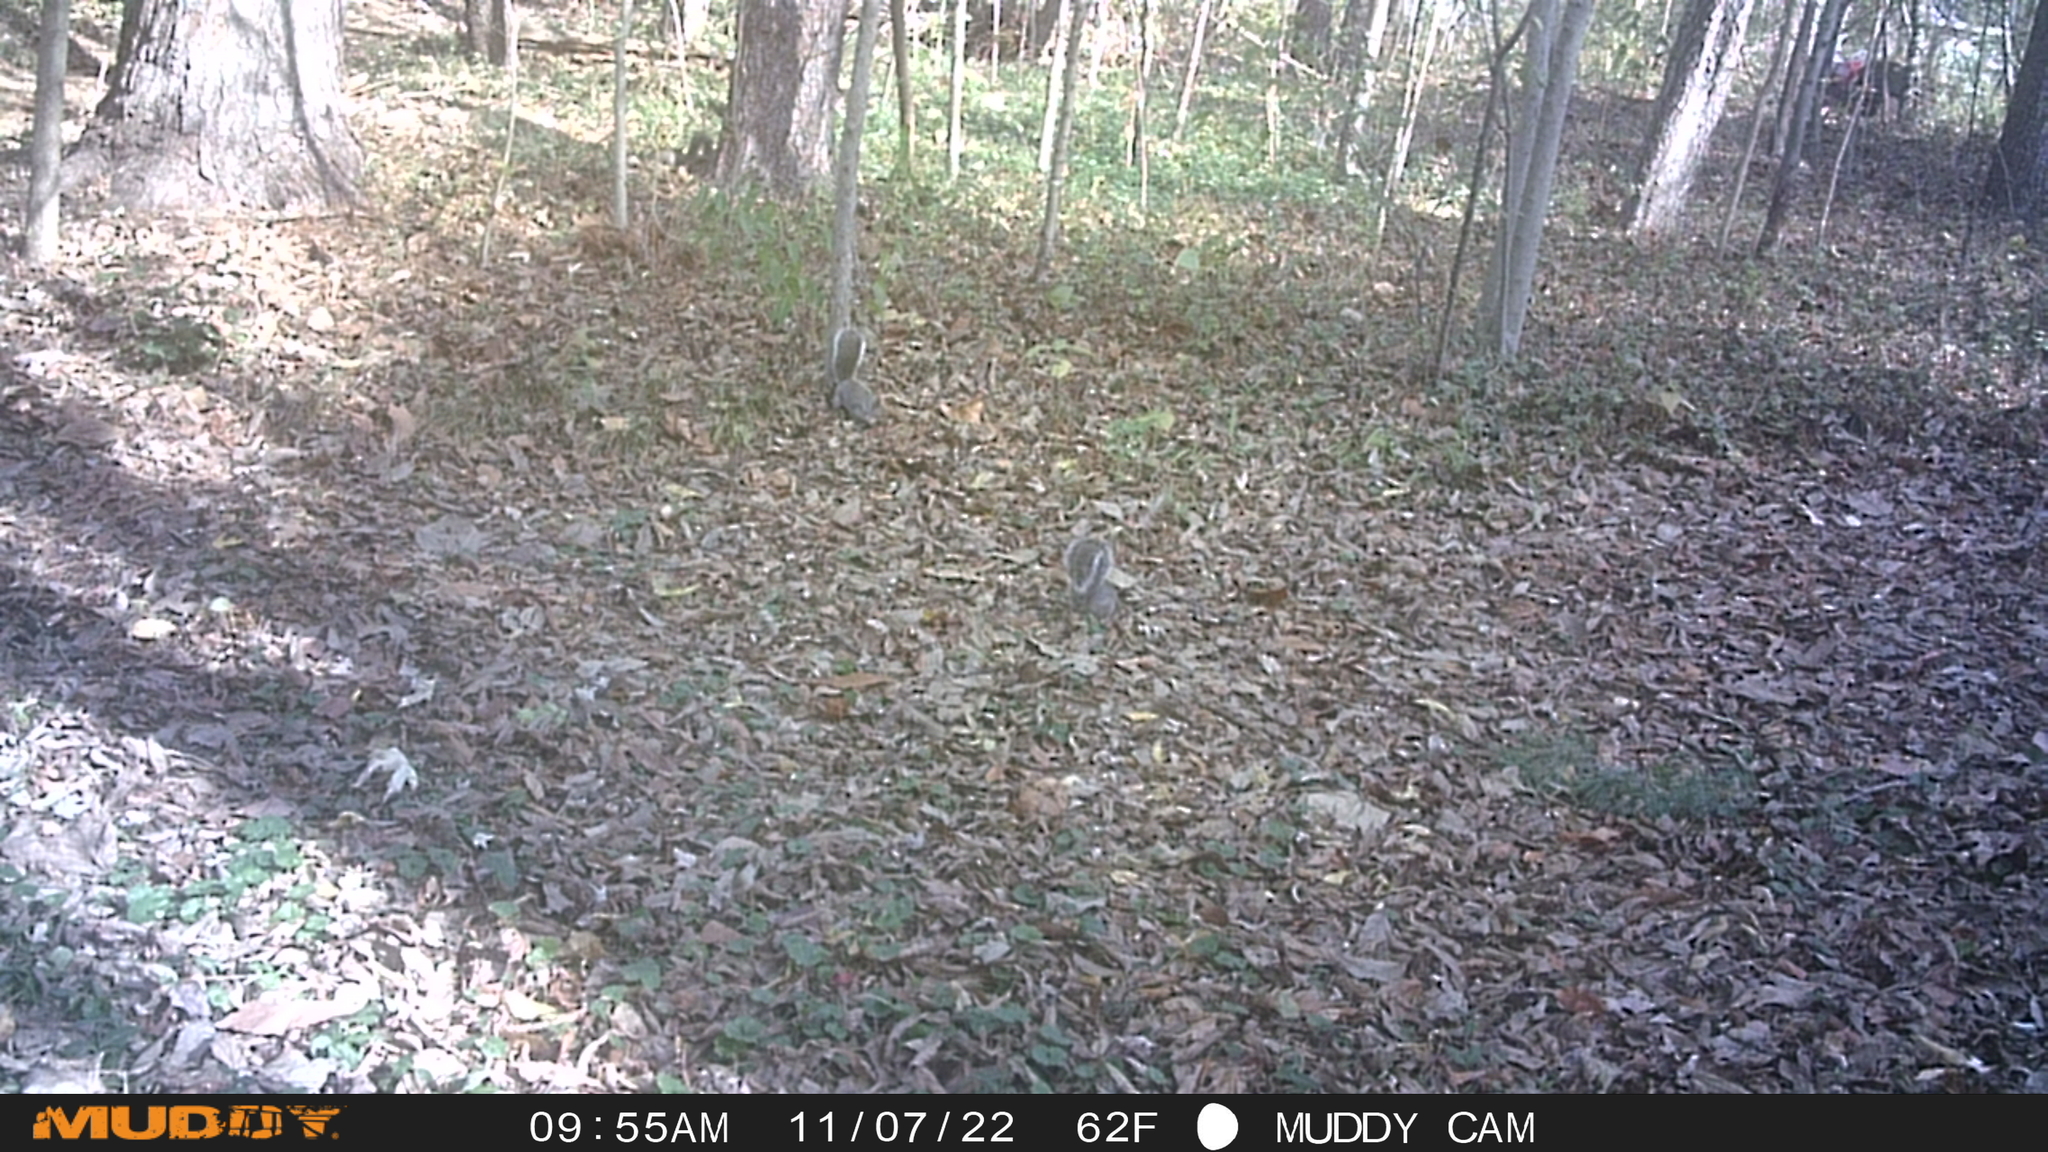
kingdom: Animalia
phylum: Chordata
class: Mammalia
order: Rodentia
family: Sciuridae
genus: Sciurus
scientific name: Sciurus carolinensis
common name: Eastern gray squirrel
